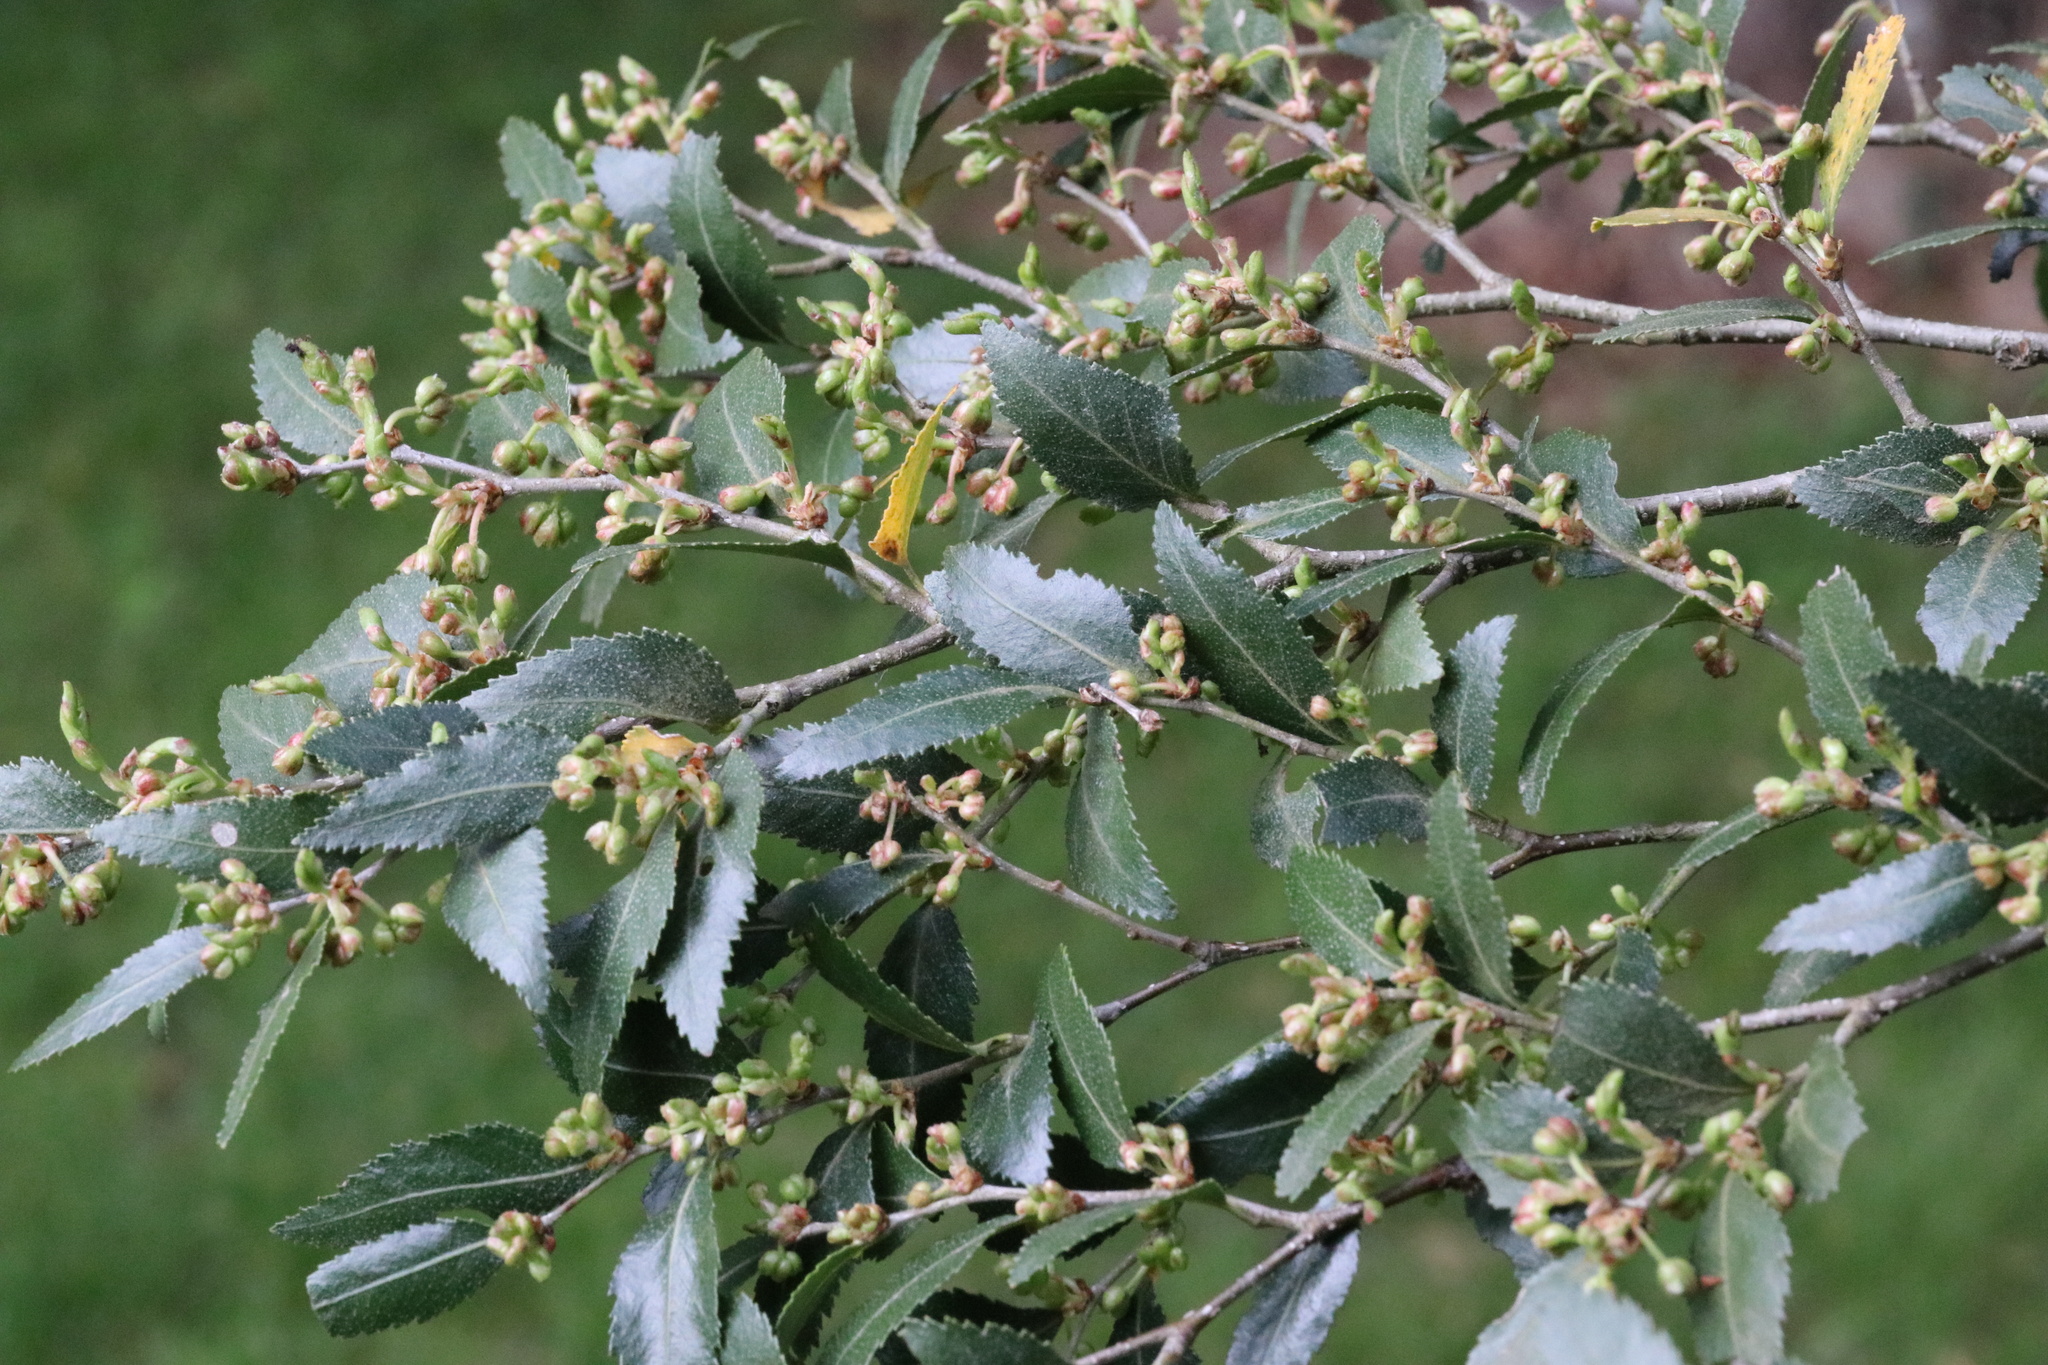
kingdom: Plantae
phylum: Tracheophyta
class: Magnoliopsida
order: Fagales
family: Nothofagaceae
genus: Nothofagus
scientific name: Nothofagus dombeyi
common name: Coigue
